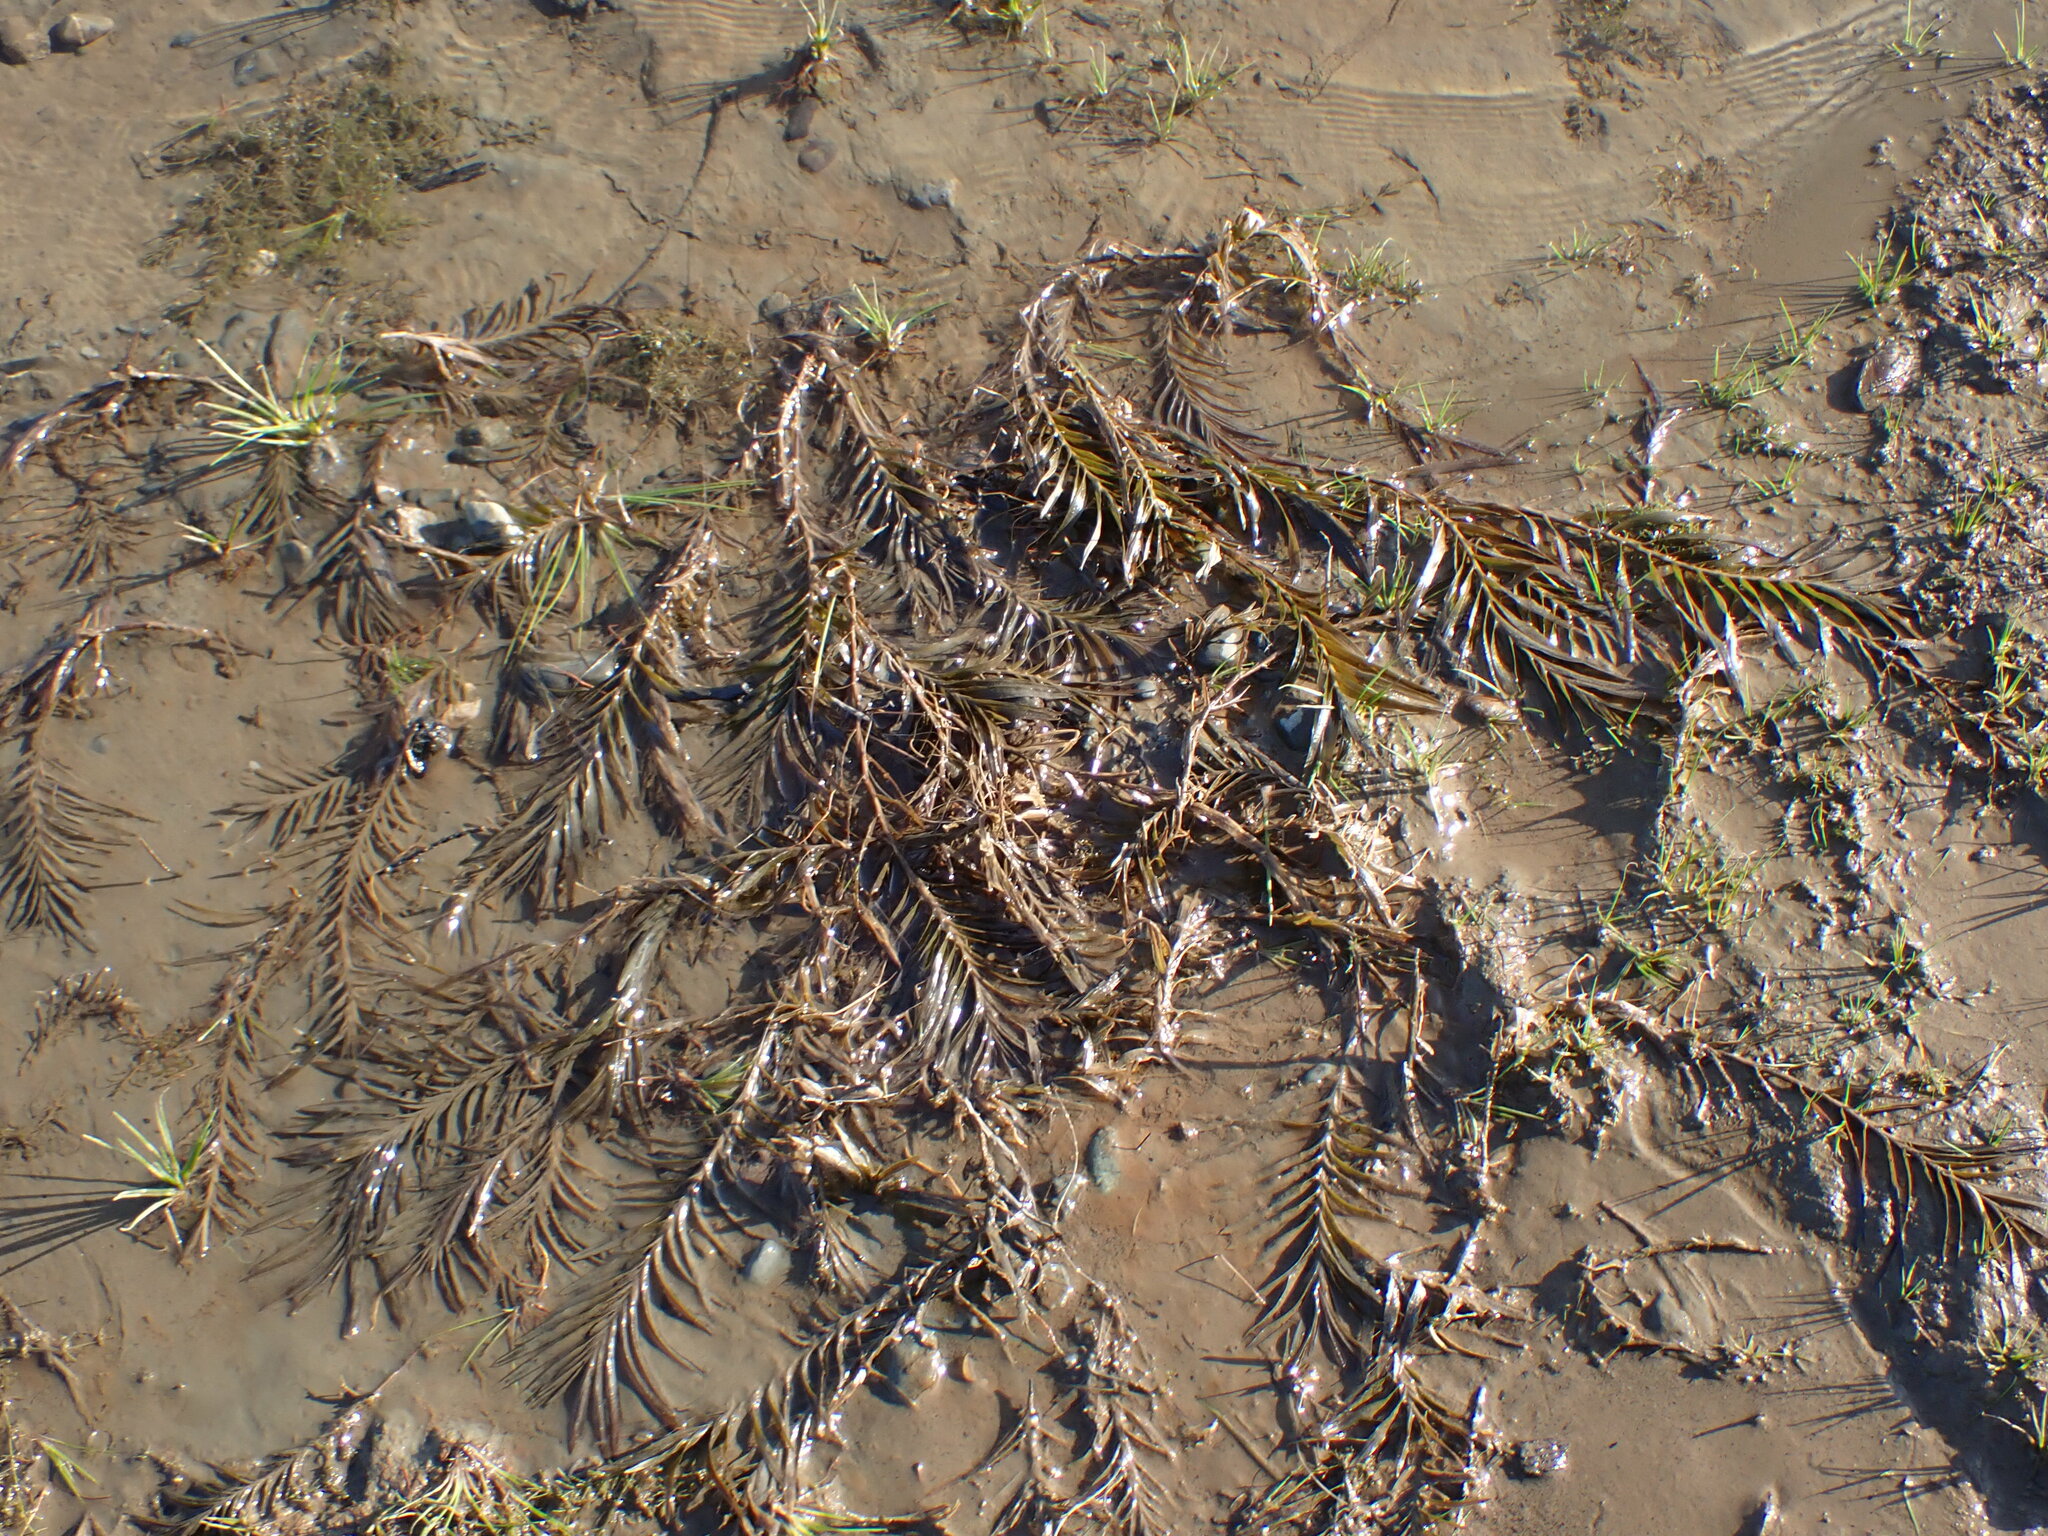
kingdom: Plantae
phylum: Tracheophyta
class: Liliopsida
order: Alismatales
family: Potamogetonaceae
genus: Potamogeton
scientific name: Potamogeton robbinsii
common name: Fern pondweed
